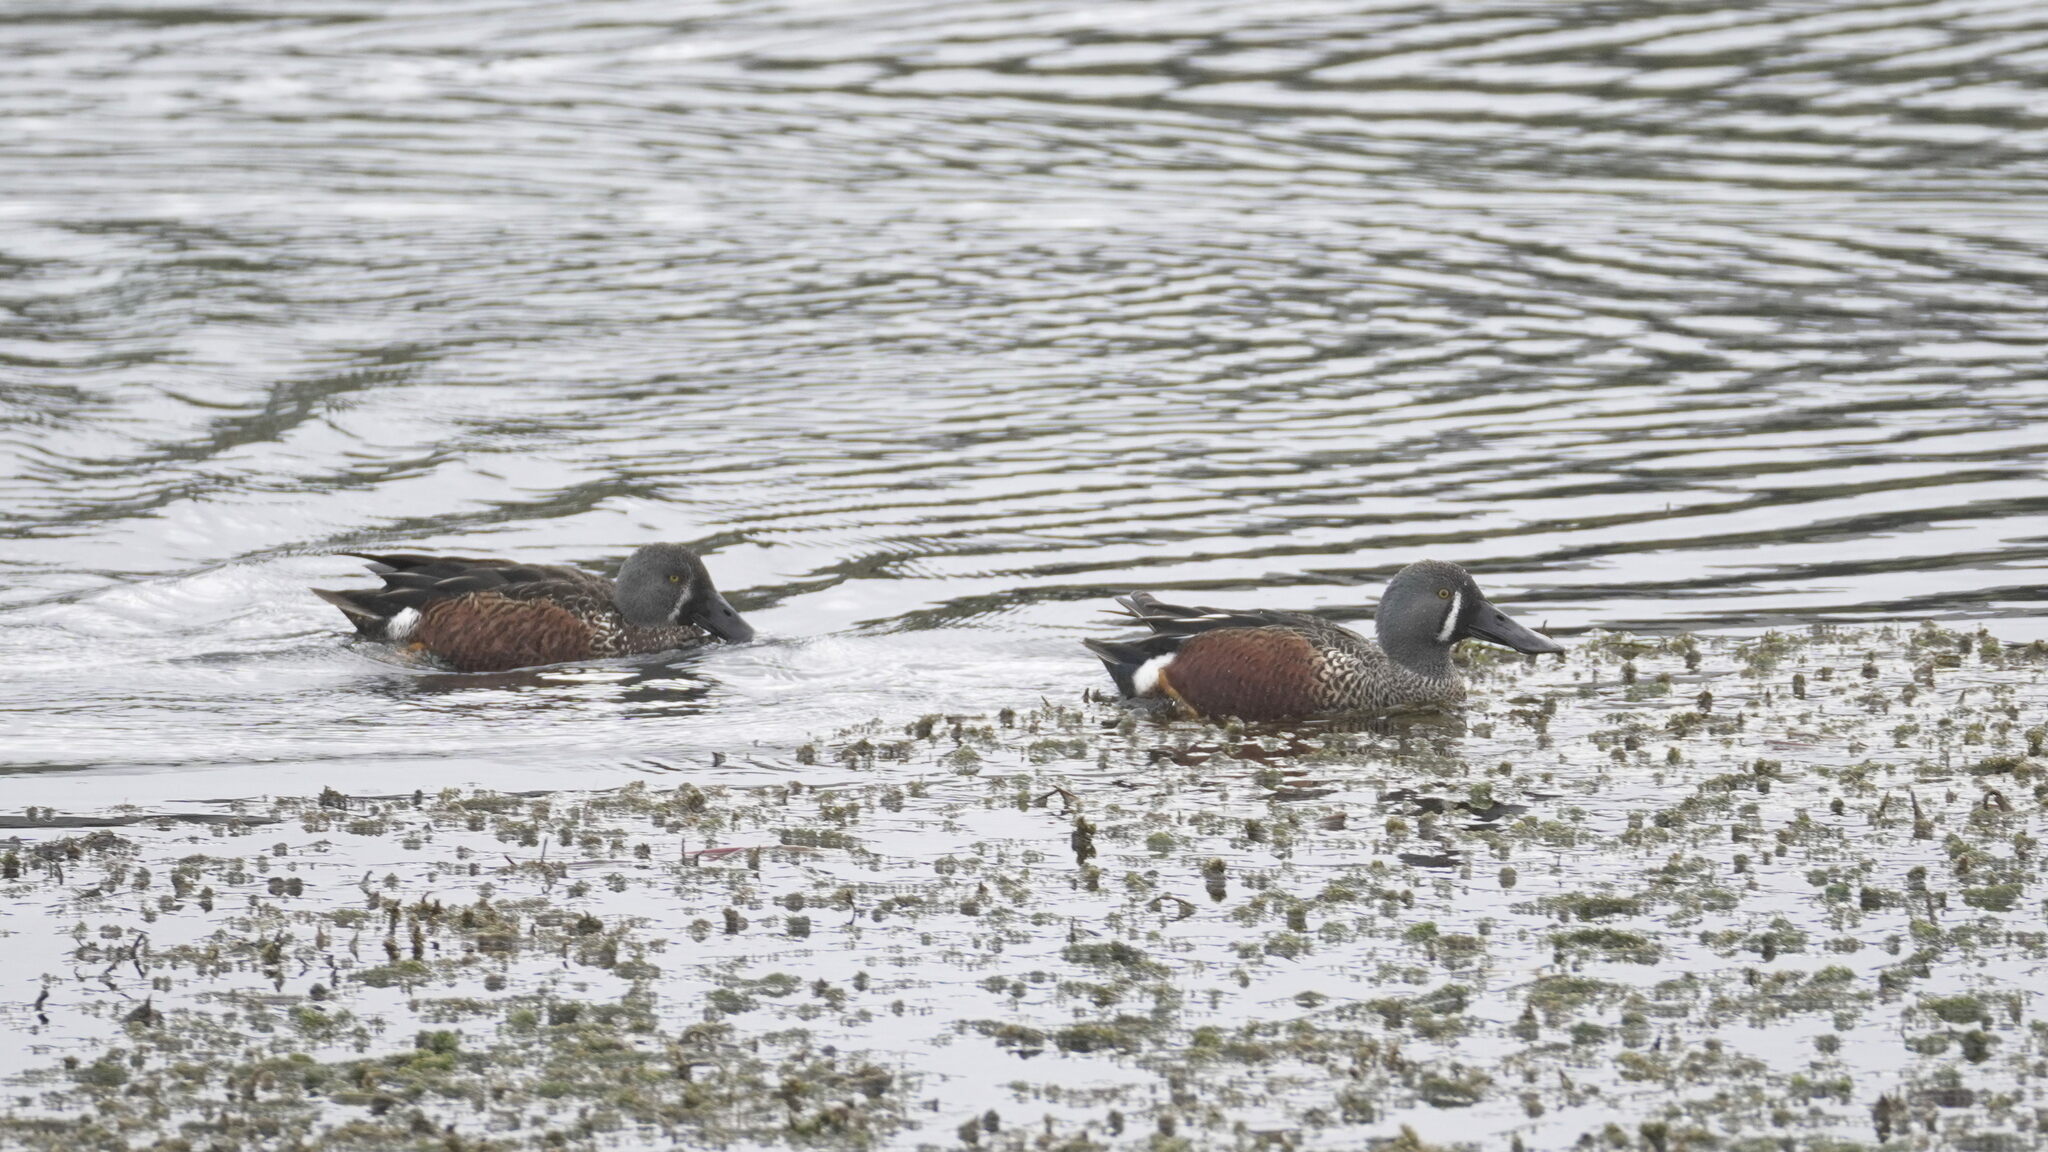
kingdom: Animalia
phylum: Chordata
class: Aves
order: Anseriformes
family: Anatidae
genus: Spatula
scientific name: Spatula rhynchotis
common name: Australian shoveler
